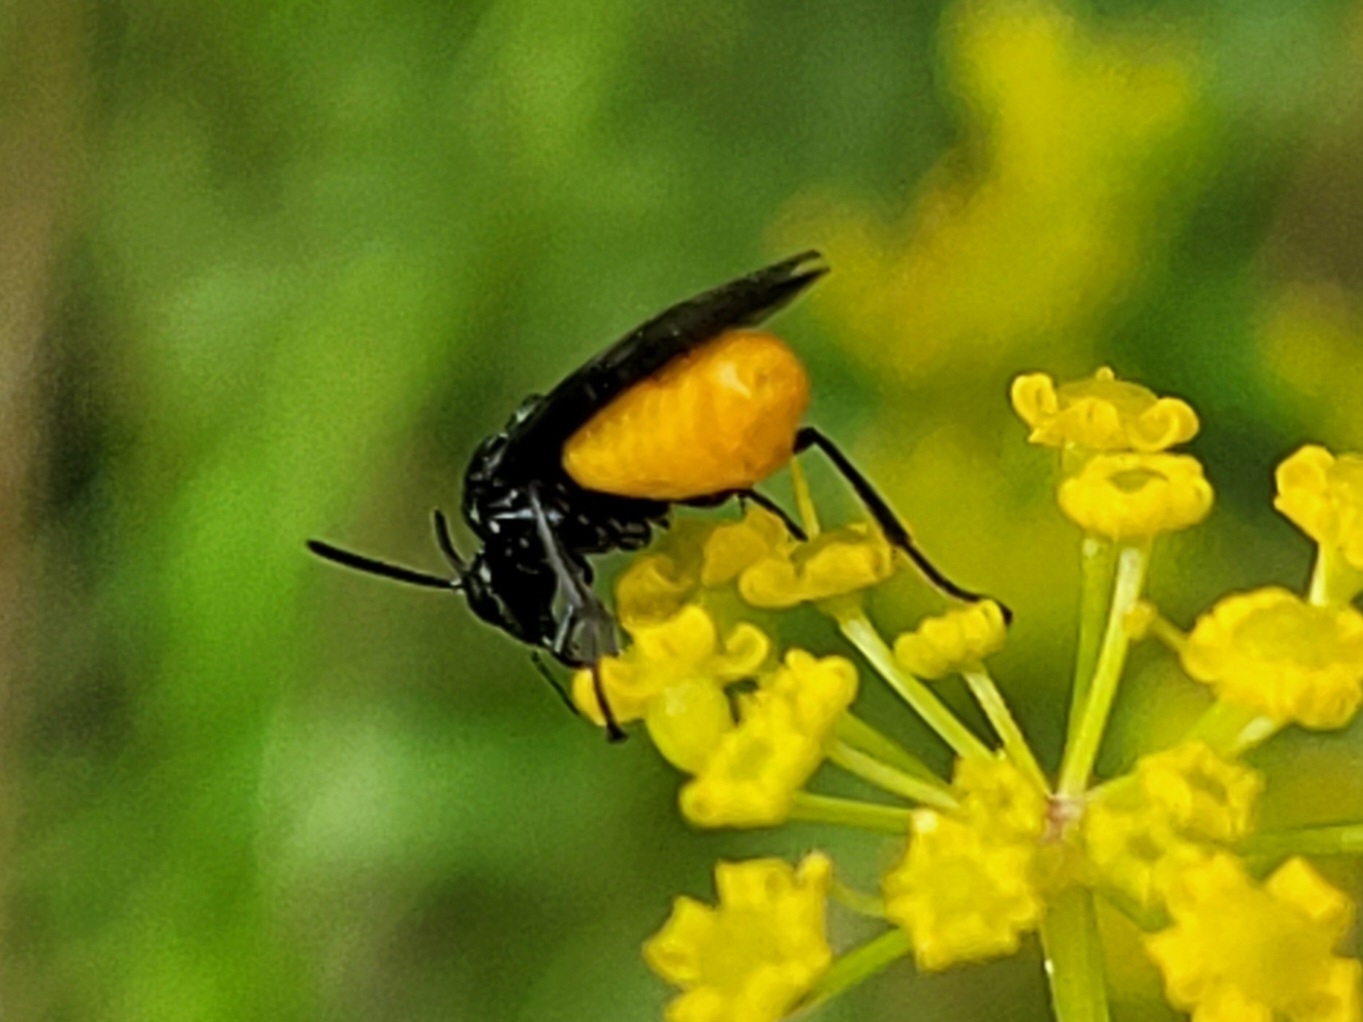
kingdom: Animalia
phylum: Arthropoda
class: Insecta
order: Hymenoptera
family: Argidae
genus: Arge
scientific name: Arge pagana
